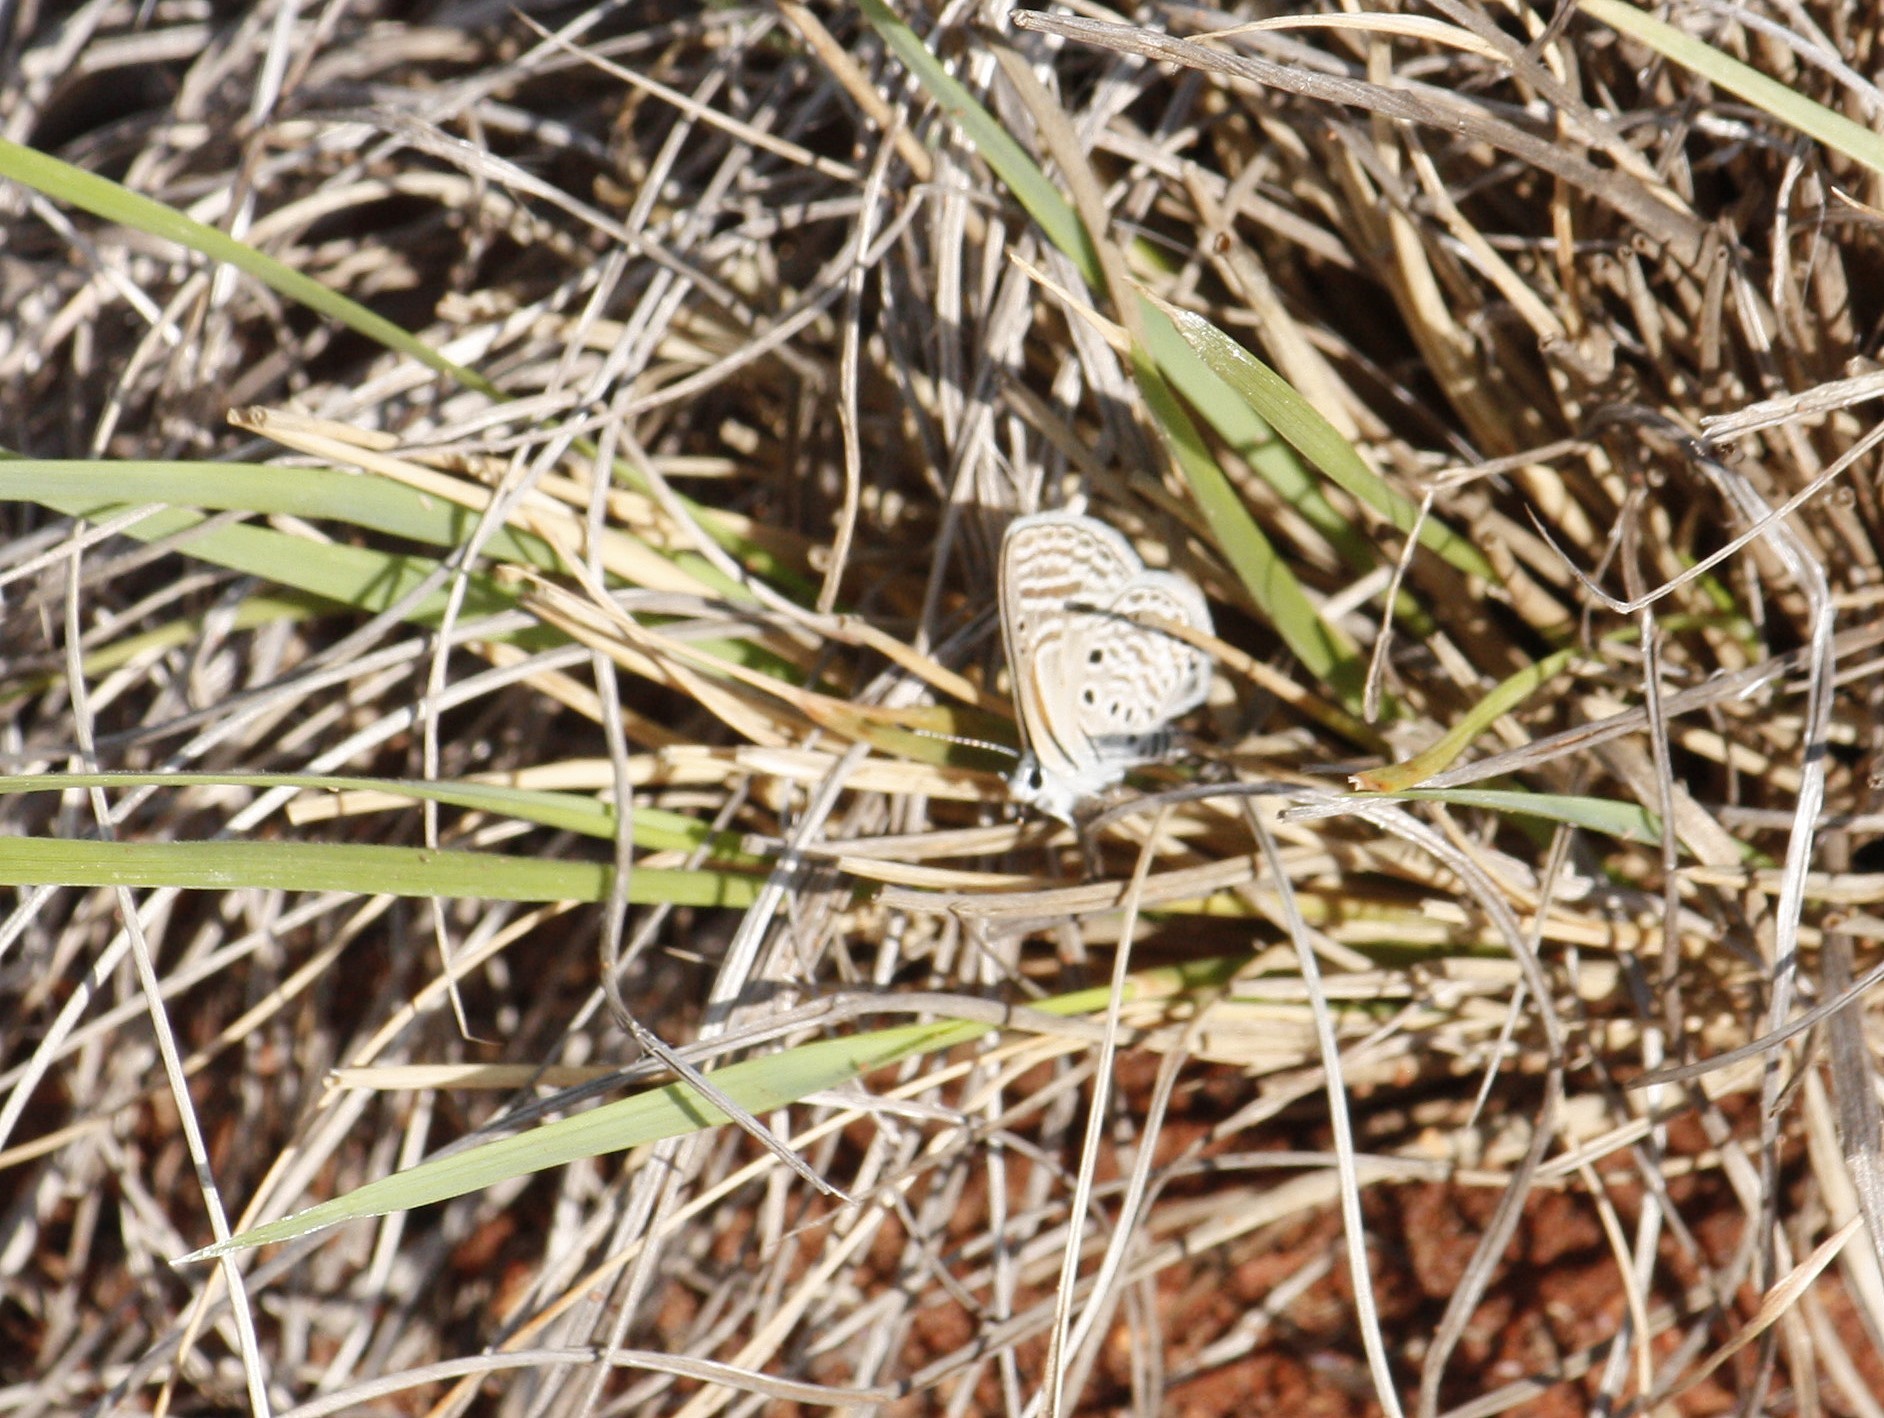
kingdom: Animalia
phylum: Arthropoda
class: Insecta
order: Lepidoptera
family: Lycaenidae
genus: Azanus
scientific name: Azanus ubaldus
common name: Desert babul blue
